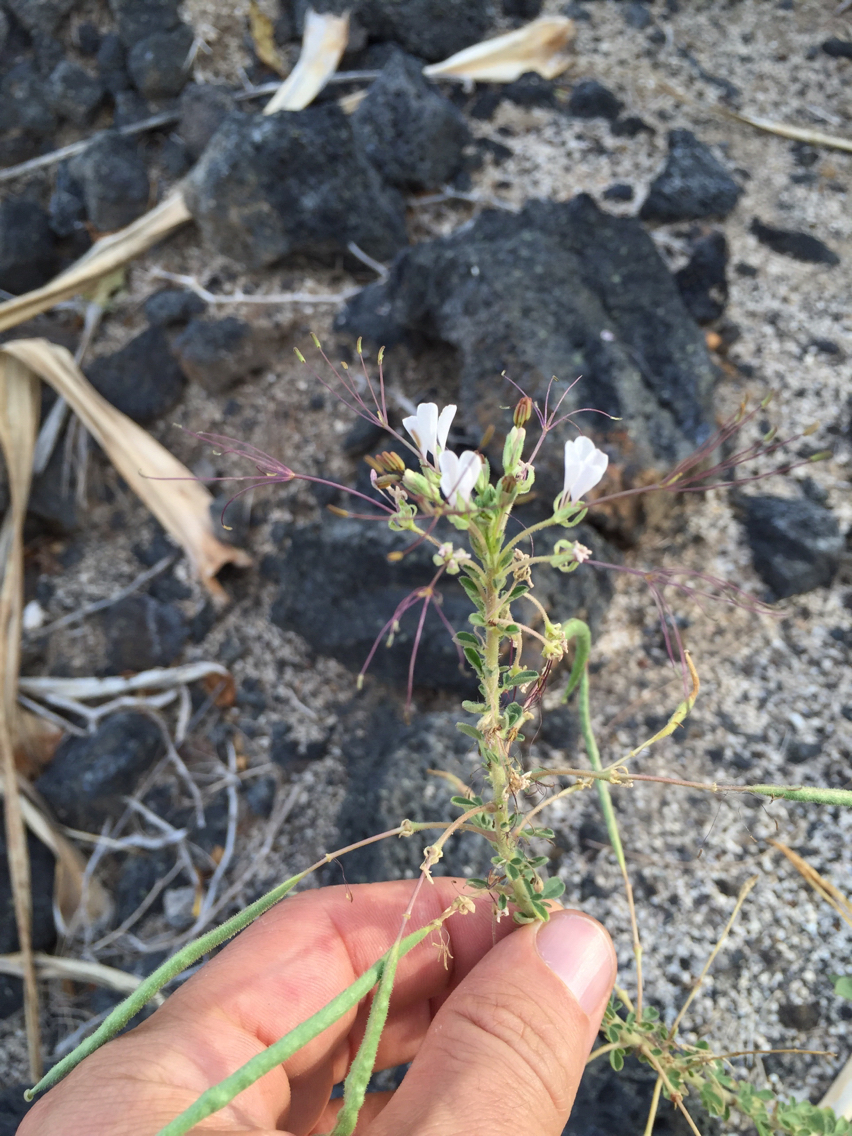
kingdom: Plantae
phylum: Tracheophyta
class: Magnoliopsida
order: Brassicales
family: Cleomaceae
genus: Gynandropsis
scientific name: Gynandropsis gynandra
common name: Spiderwisp
